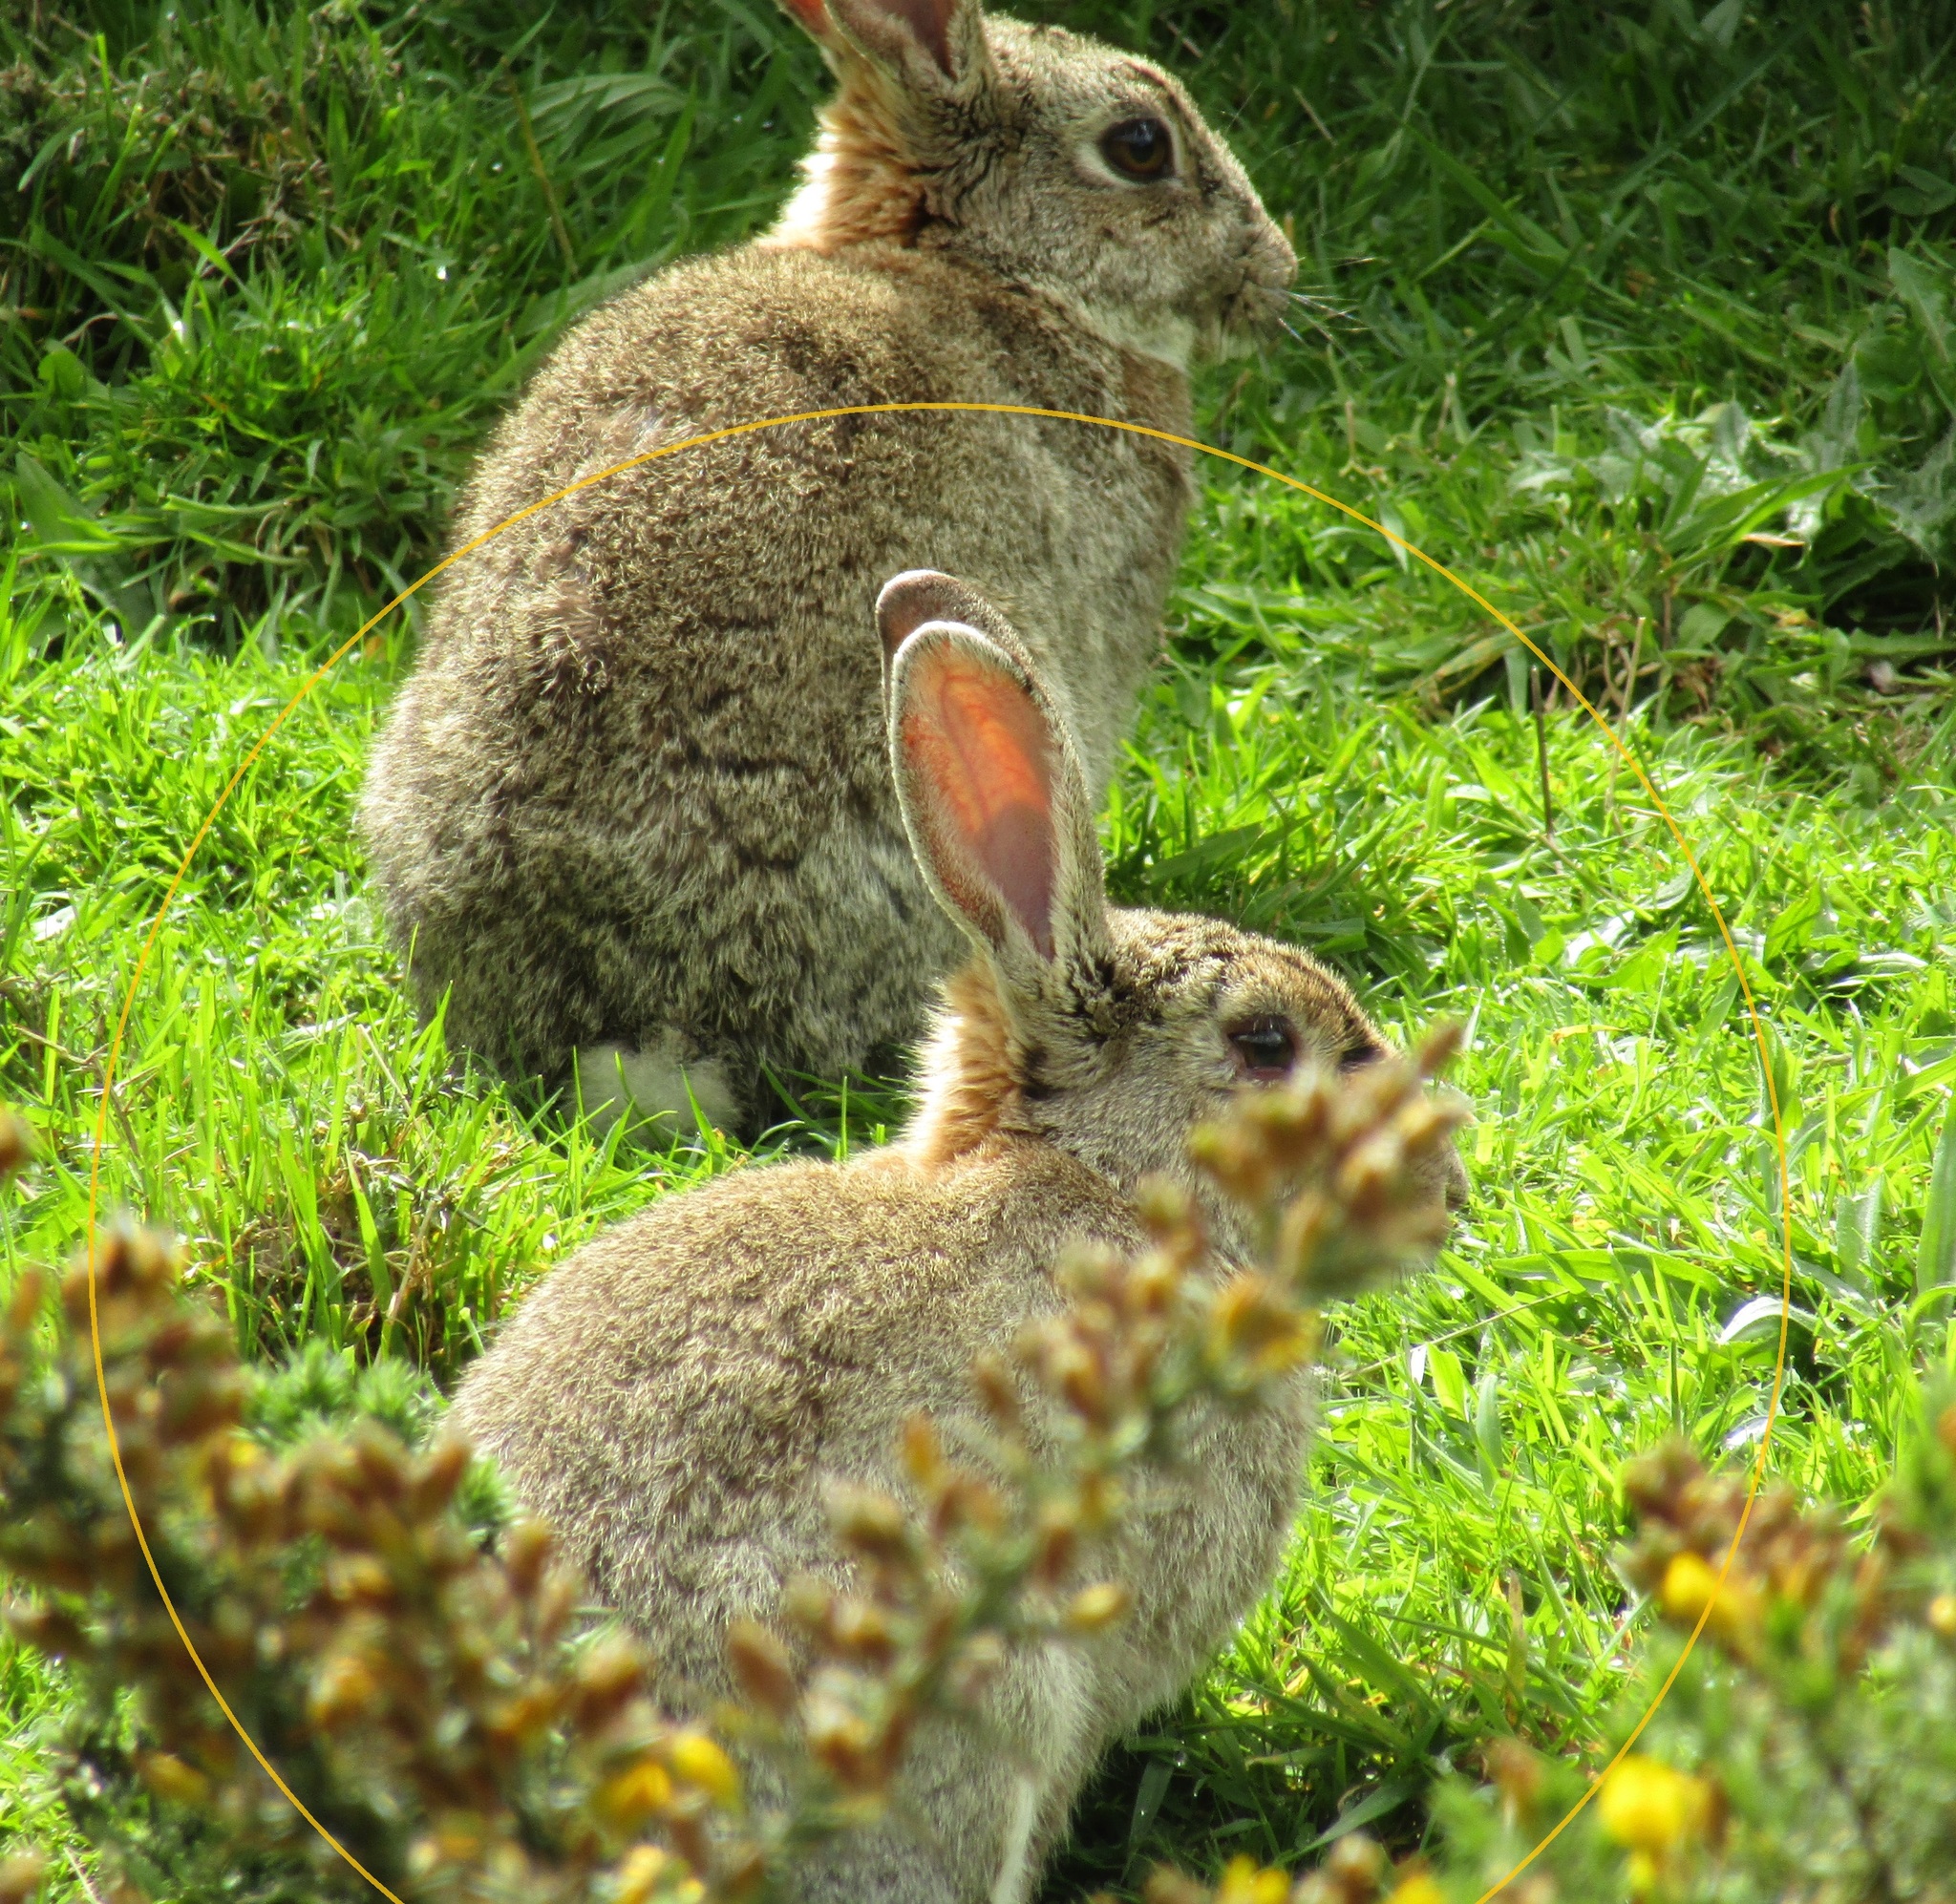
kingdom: Animalia
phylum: Chordata
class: Mammalia
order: Lagomorpha
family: Leporidae
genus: Oryctolagus
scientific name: Oryctolagus cuniculus
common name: European rabbit
